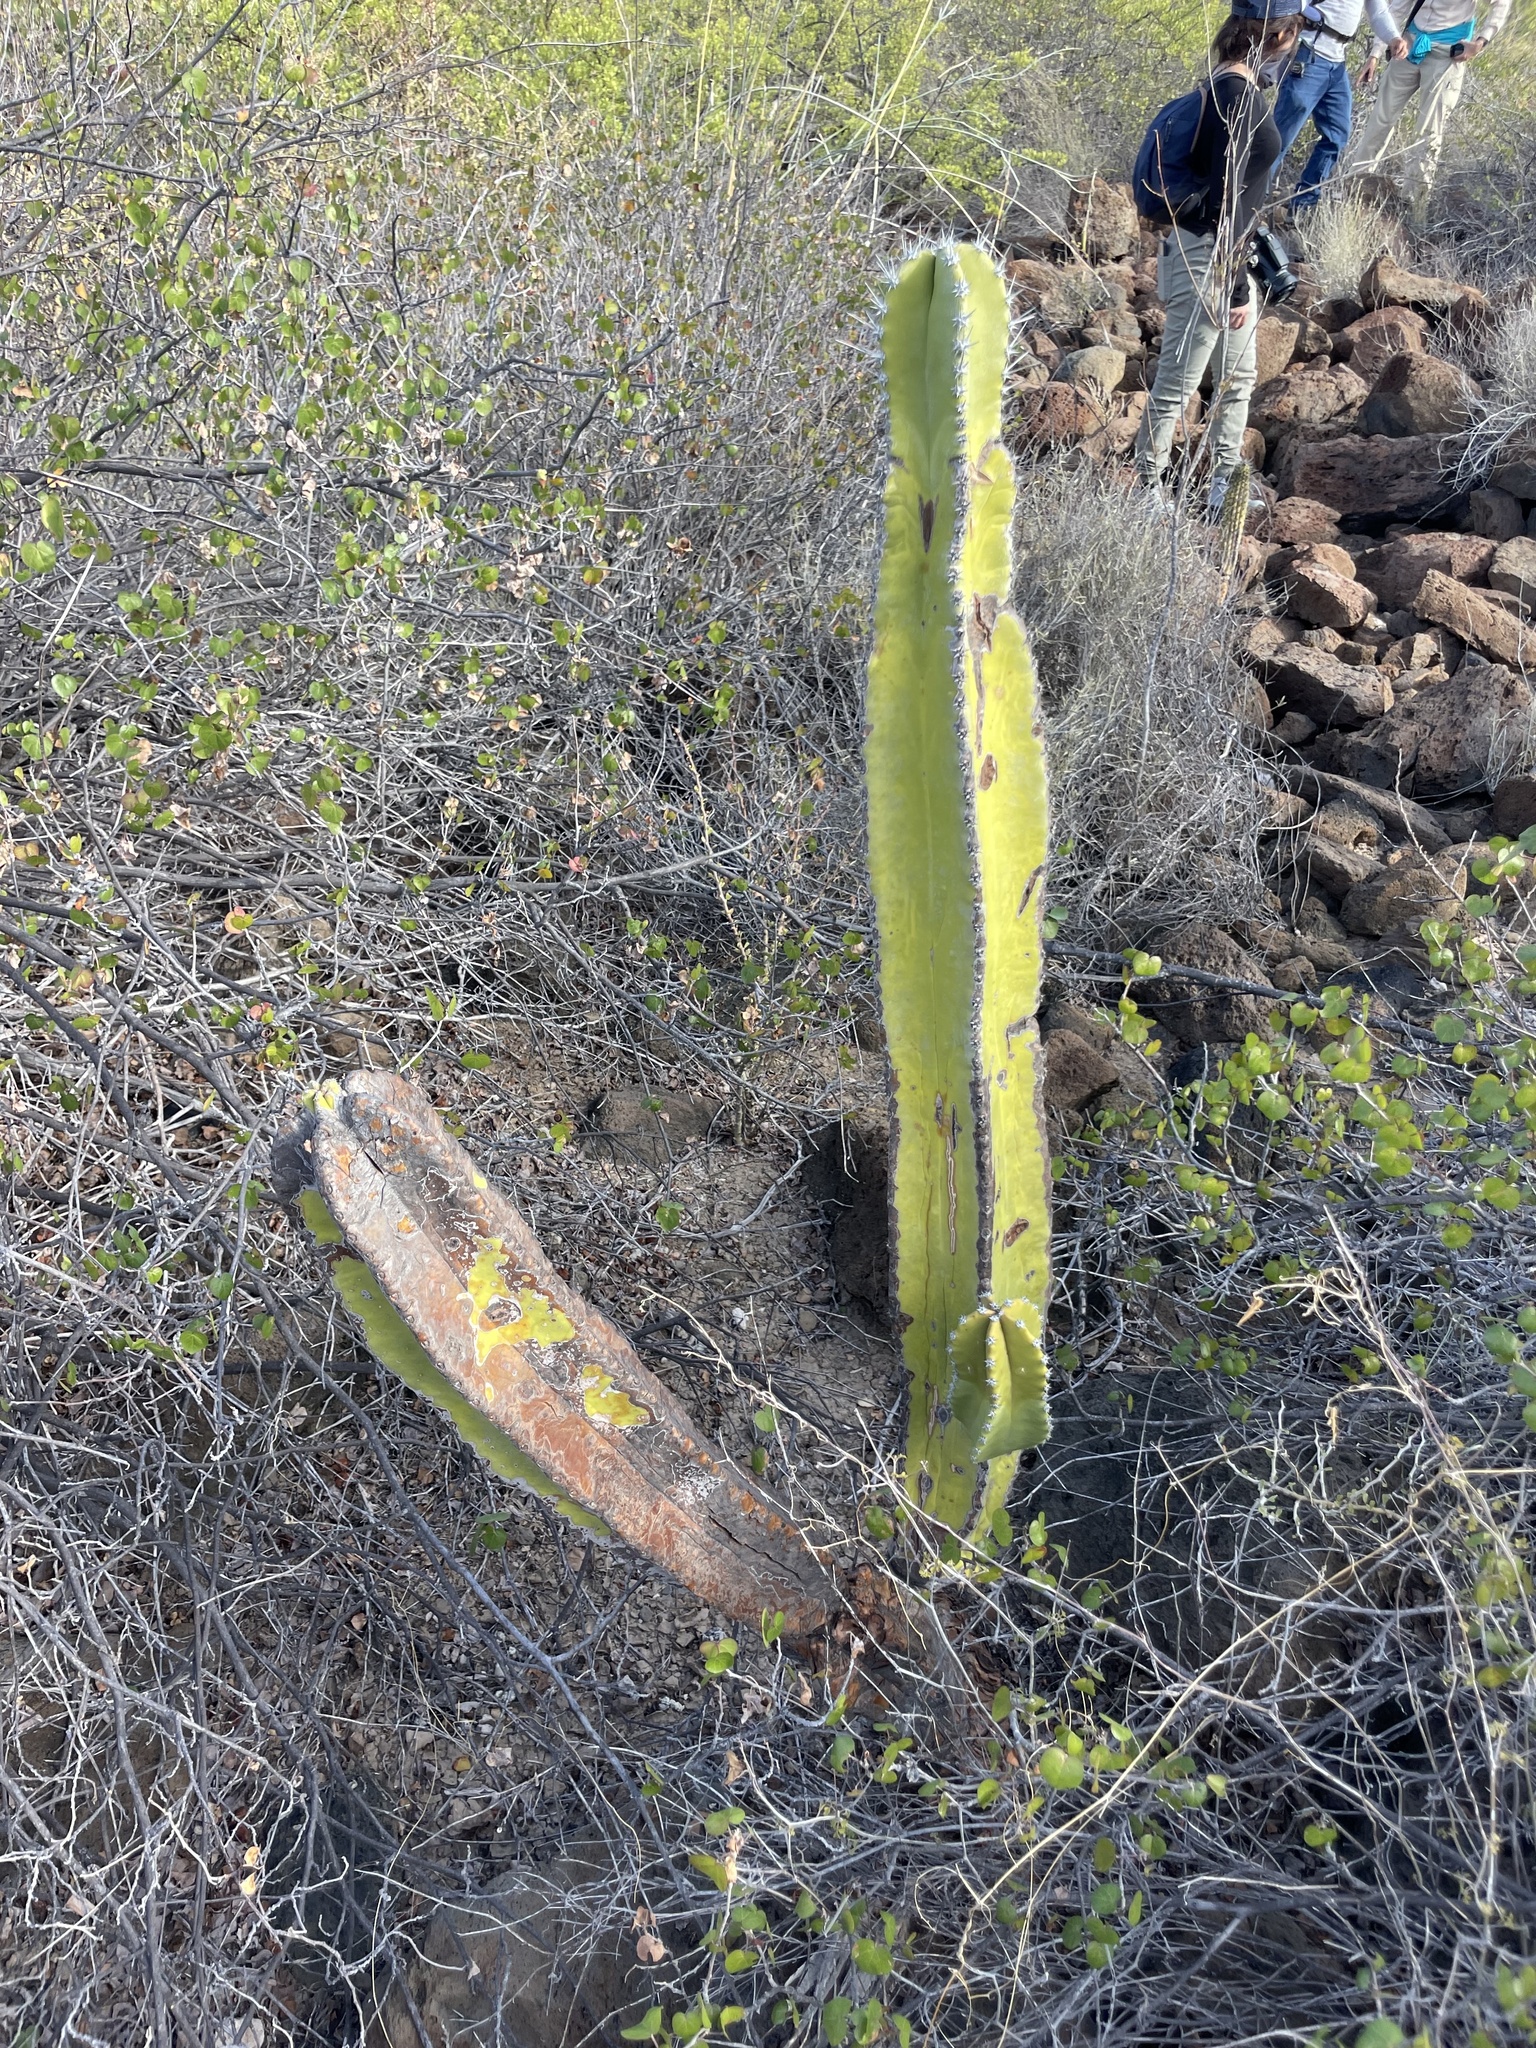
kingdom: Plantae
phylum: Tracheophyta
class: Magnoliopsida
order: Caryophyllales
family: Cactaceae
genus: Pachycereus
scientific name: Pachycereus schottii
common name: Senita cactus
